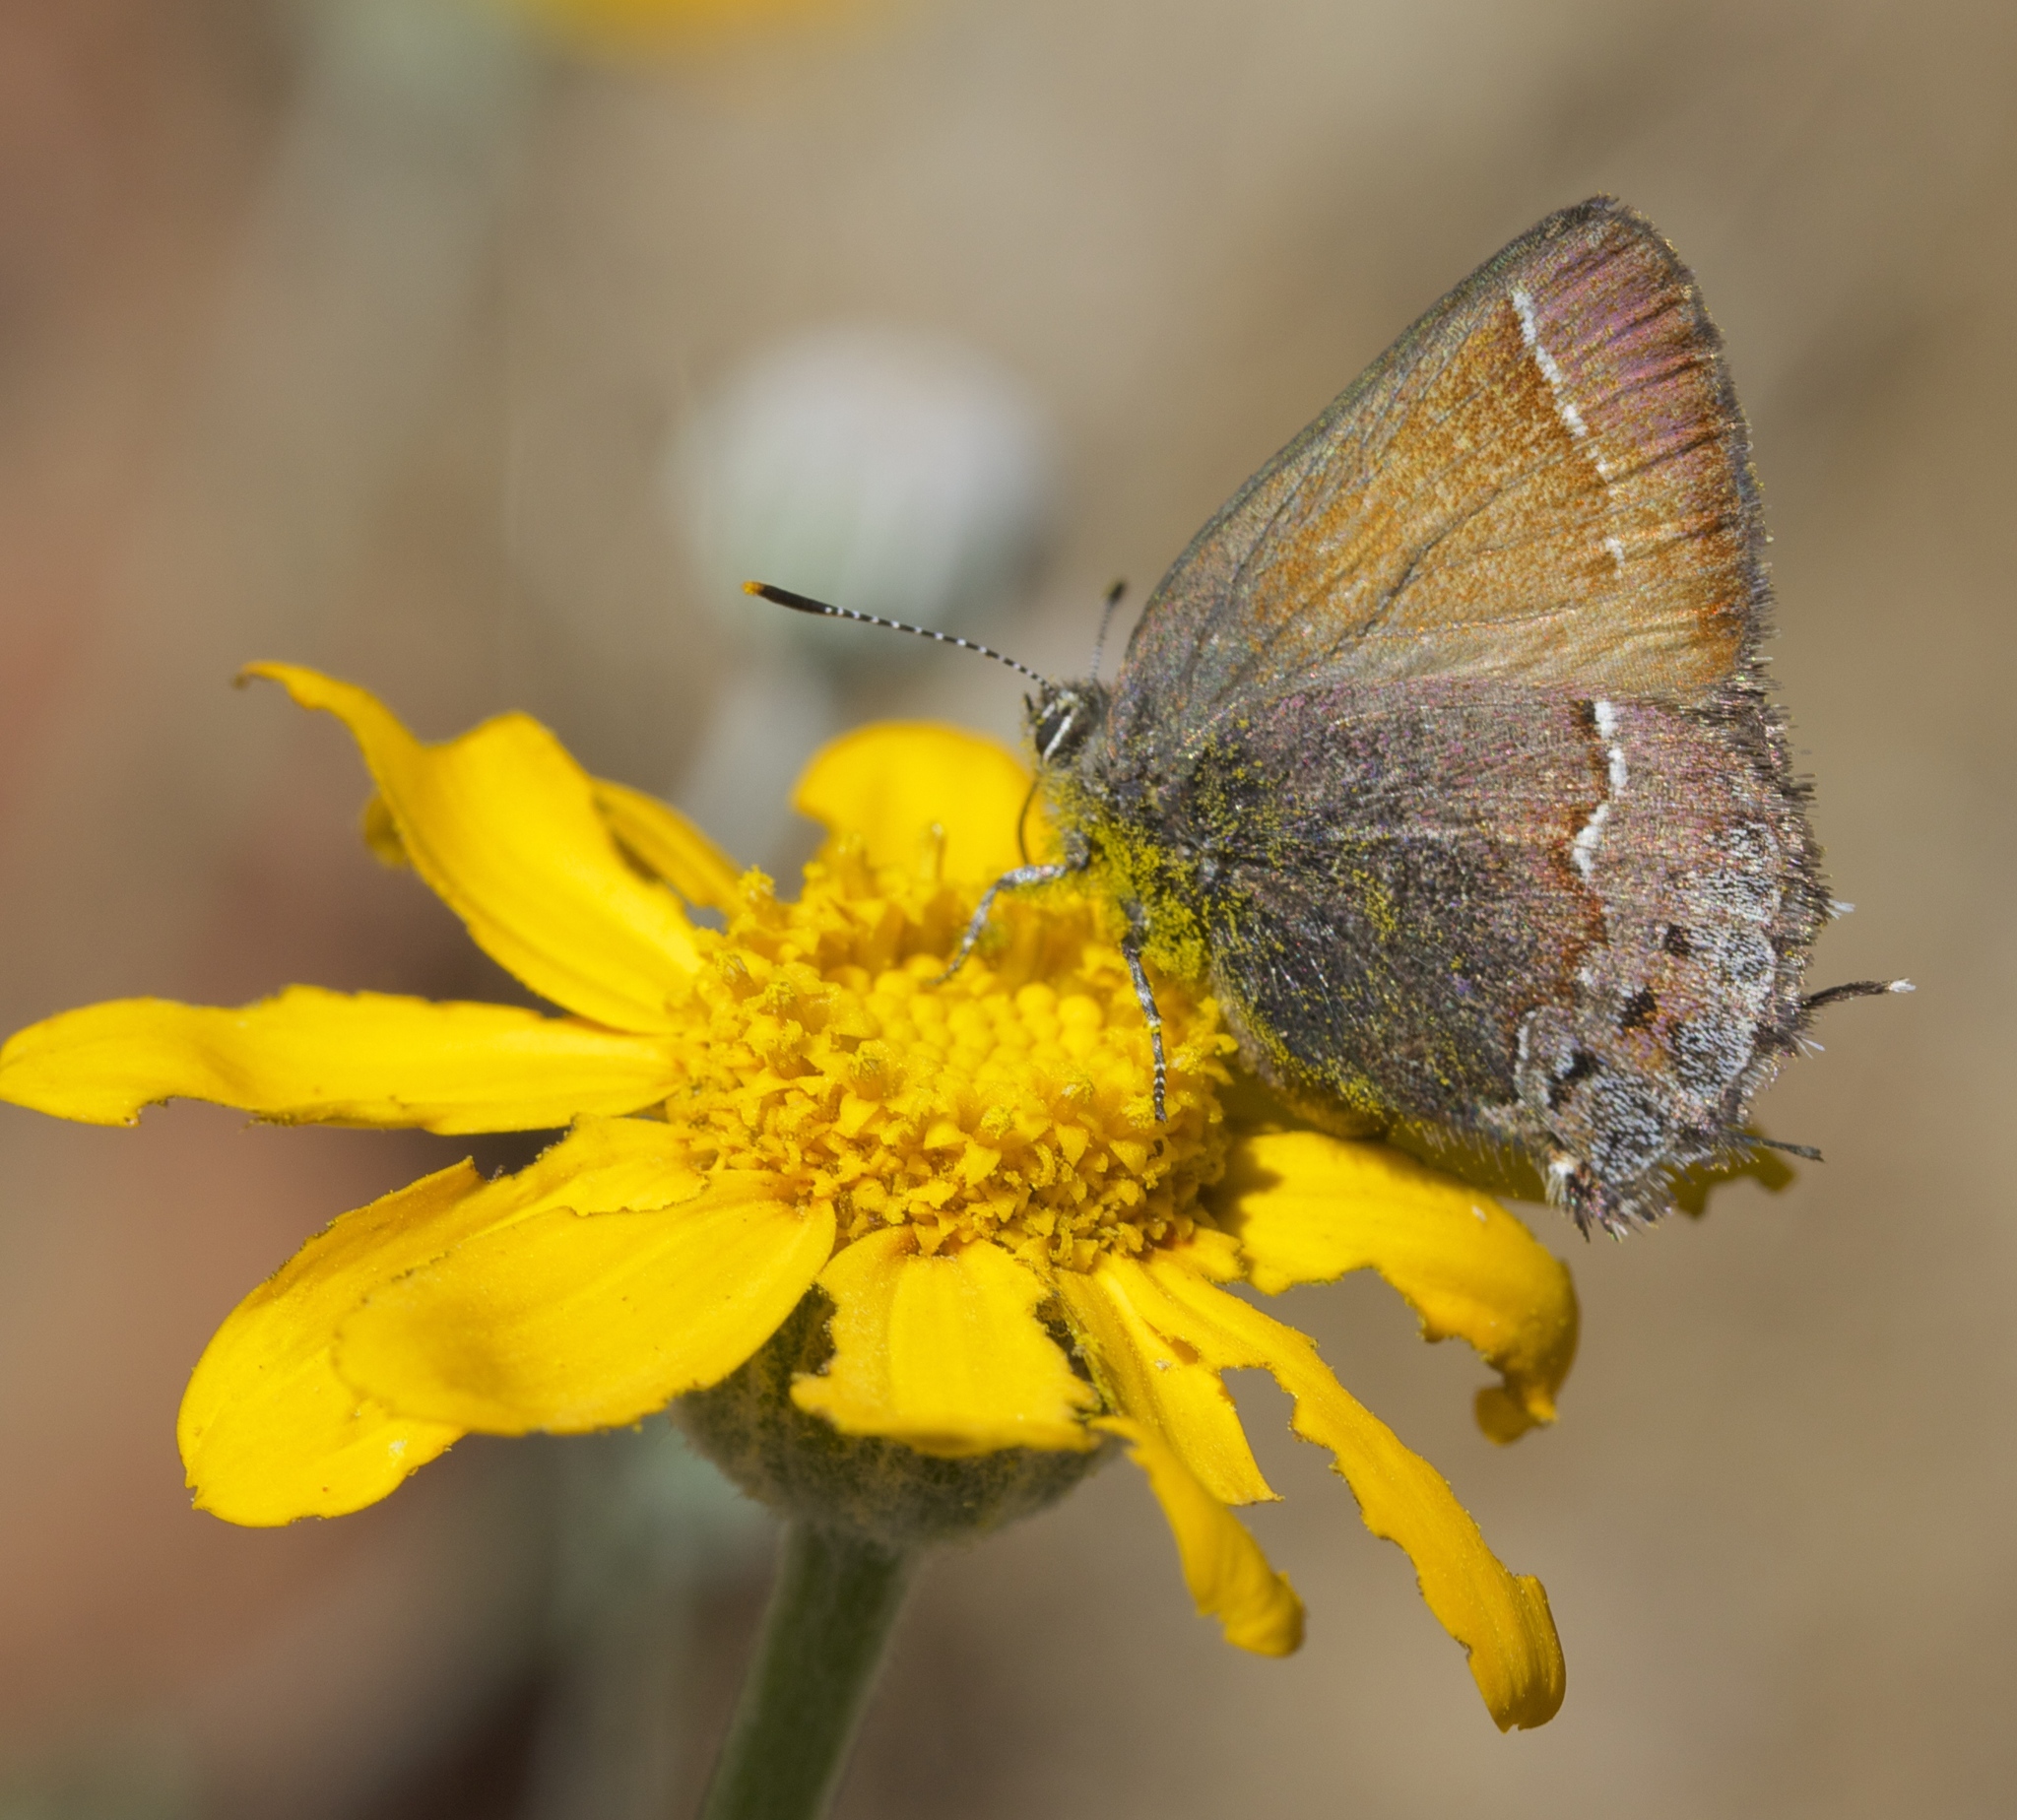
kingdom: Animalia
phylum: Arthropoda
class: Insecta
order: Lepidoptera
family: Lycaenidae
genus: Callophrys
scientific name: Callophrys muiri
